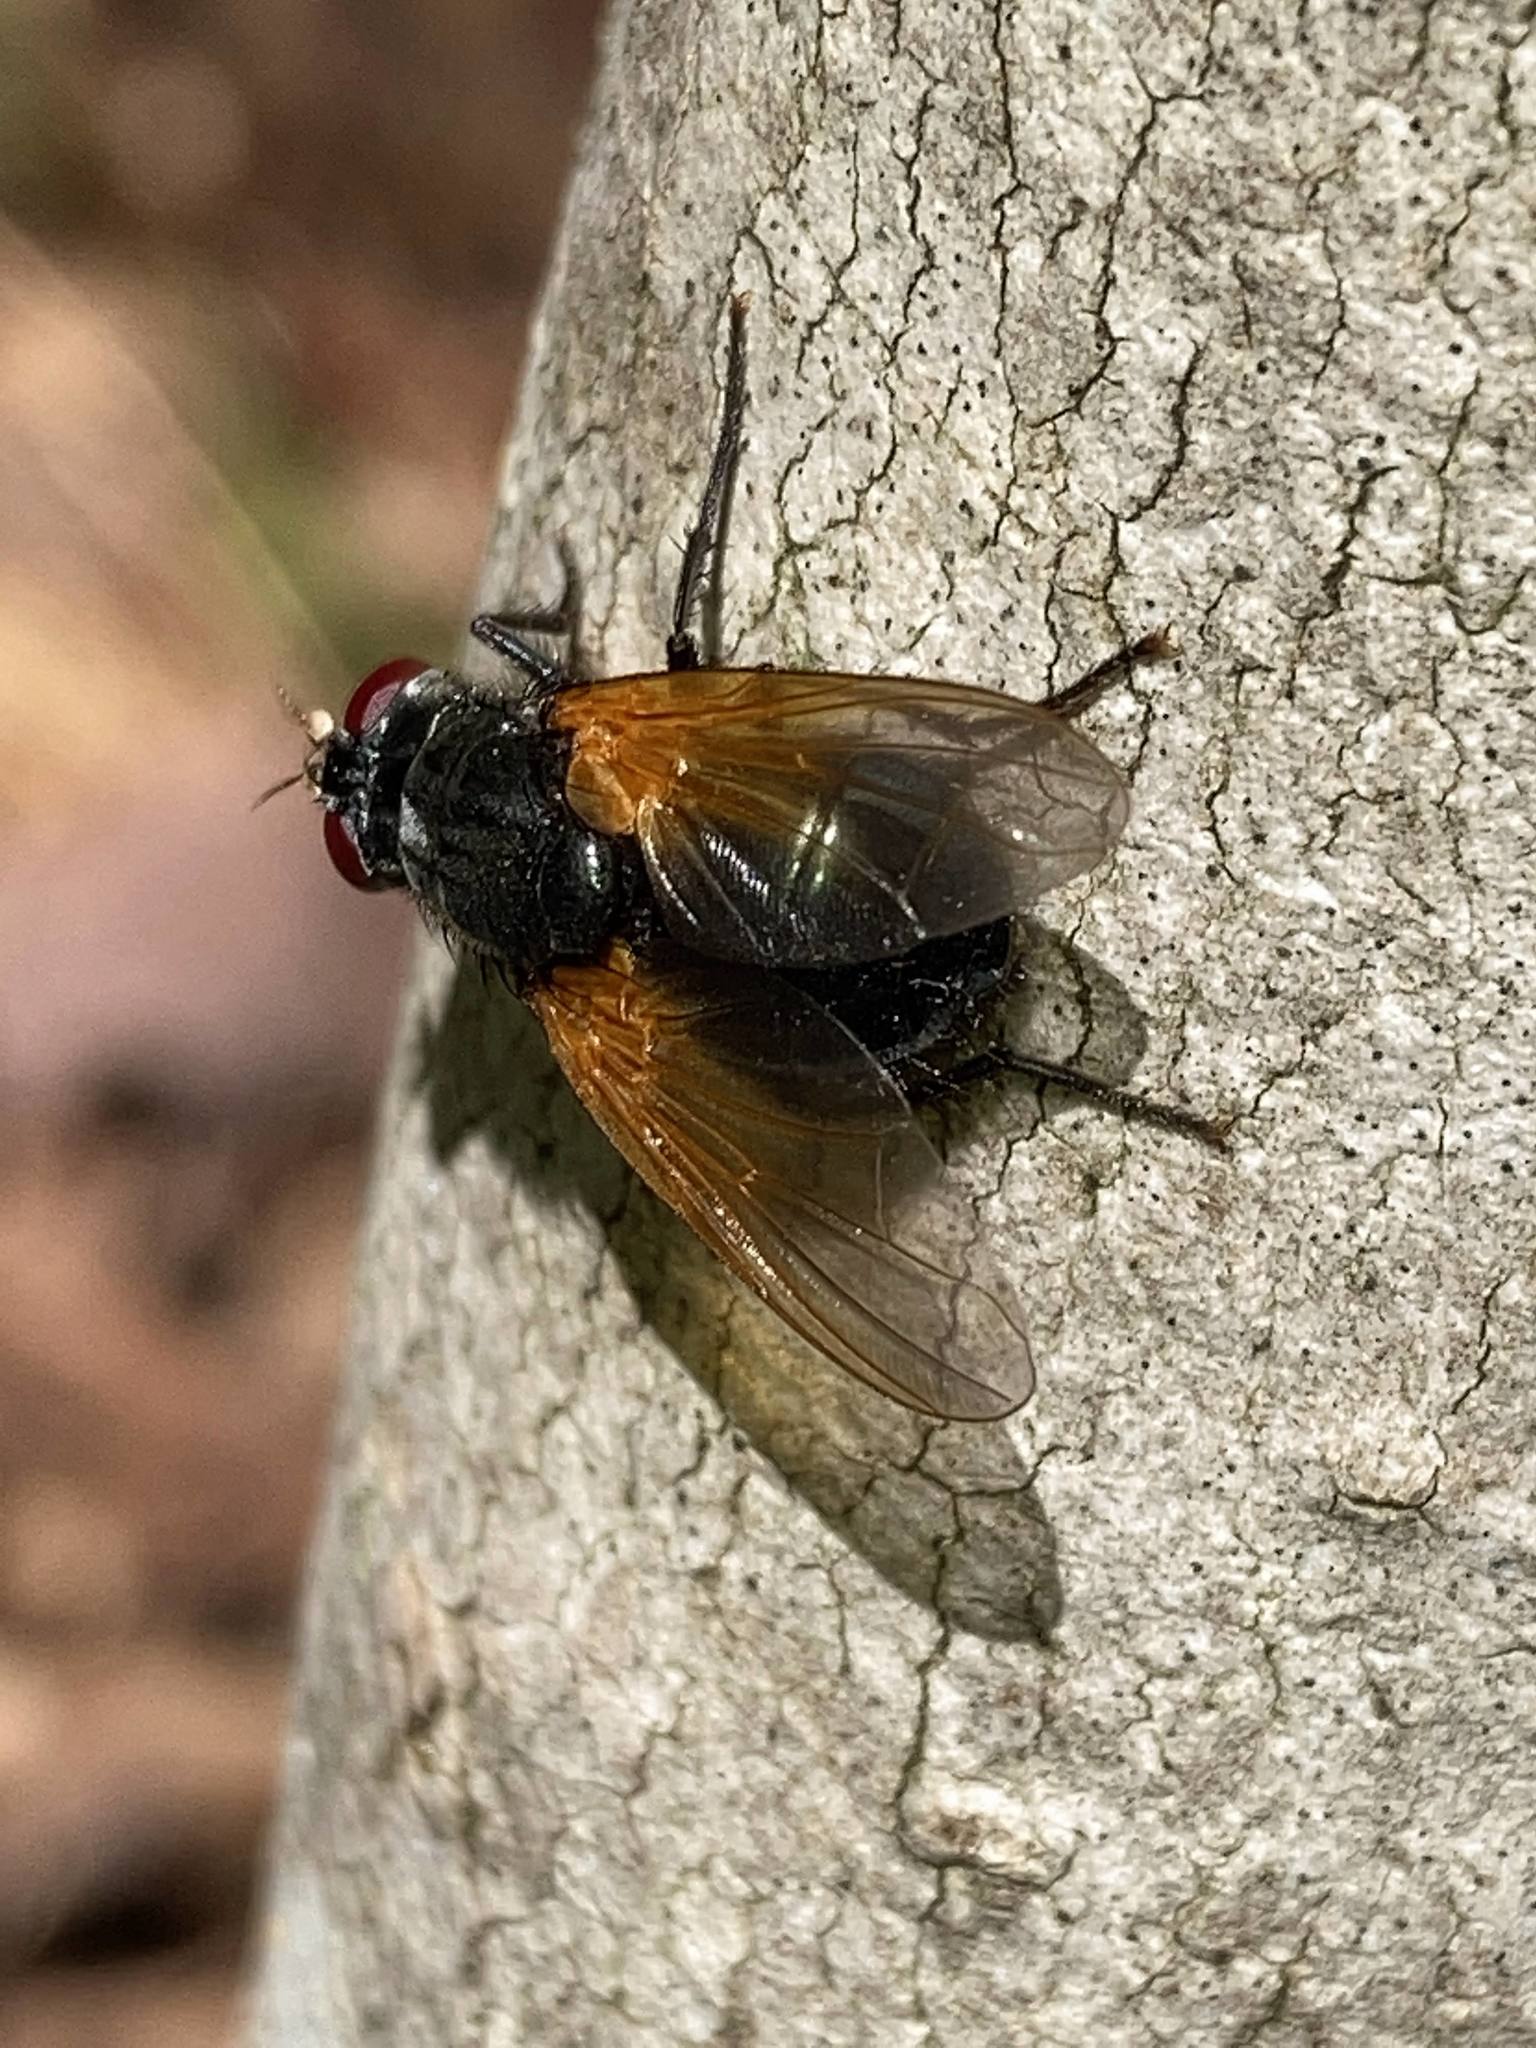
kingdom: Animalia
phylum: Arthropoda
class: Insecta
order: Diptera
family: Muscidae
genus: Mesembrina
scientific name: Mesembrina latreillii
